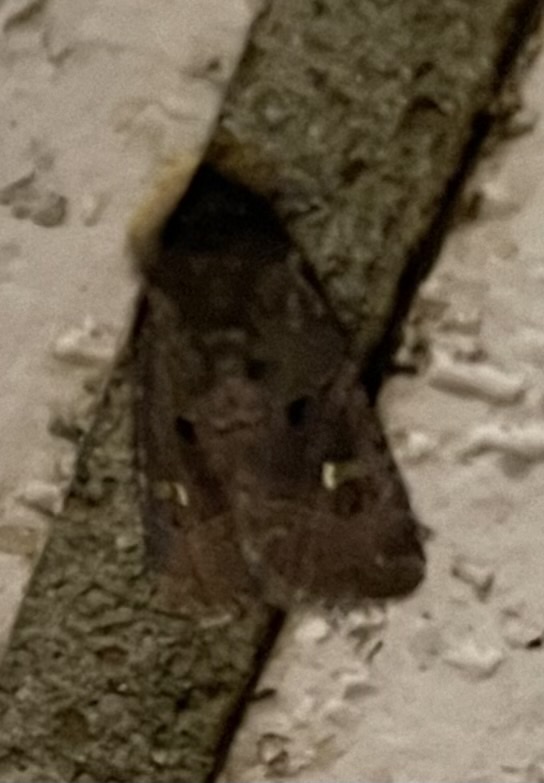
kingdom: Animalia
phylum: Arthropoda
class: Insecta
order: Lepidoptera
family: Noctuidae
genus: Lacinipolia
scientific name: Lacinipolia renigera
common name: Kidney-spotted minor
